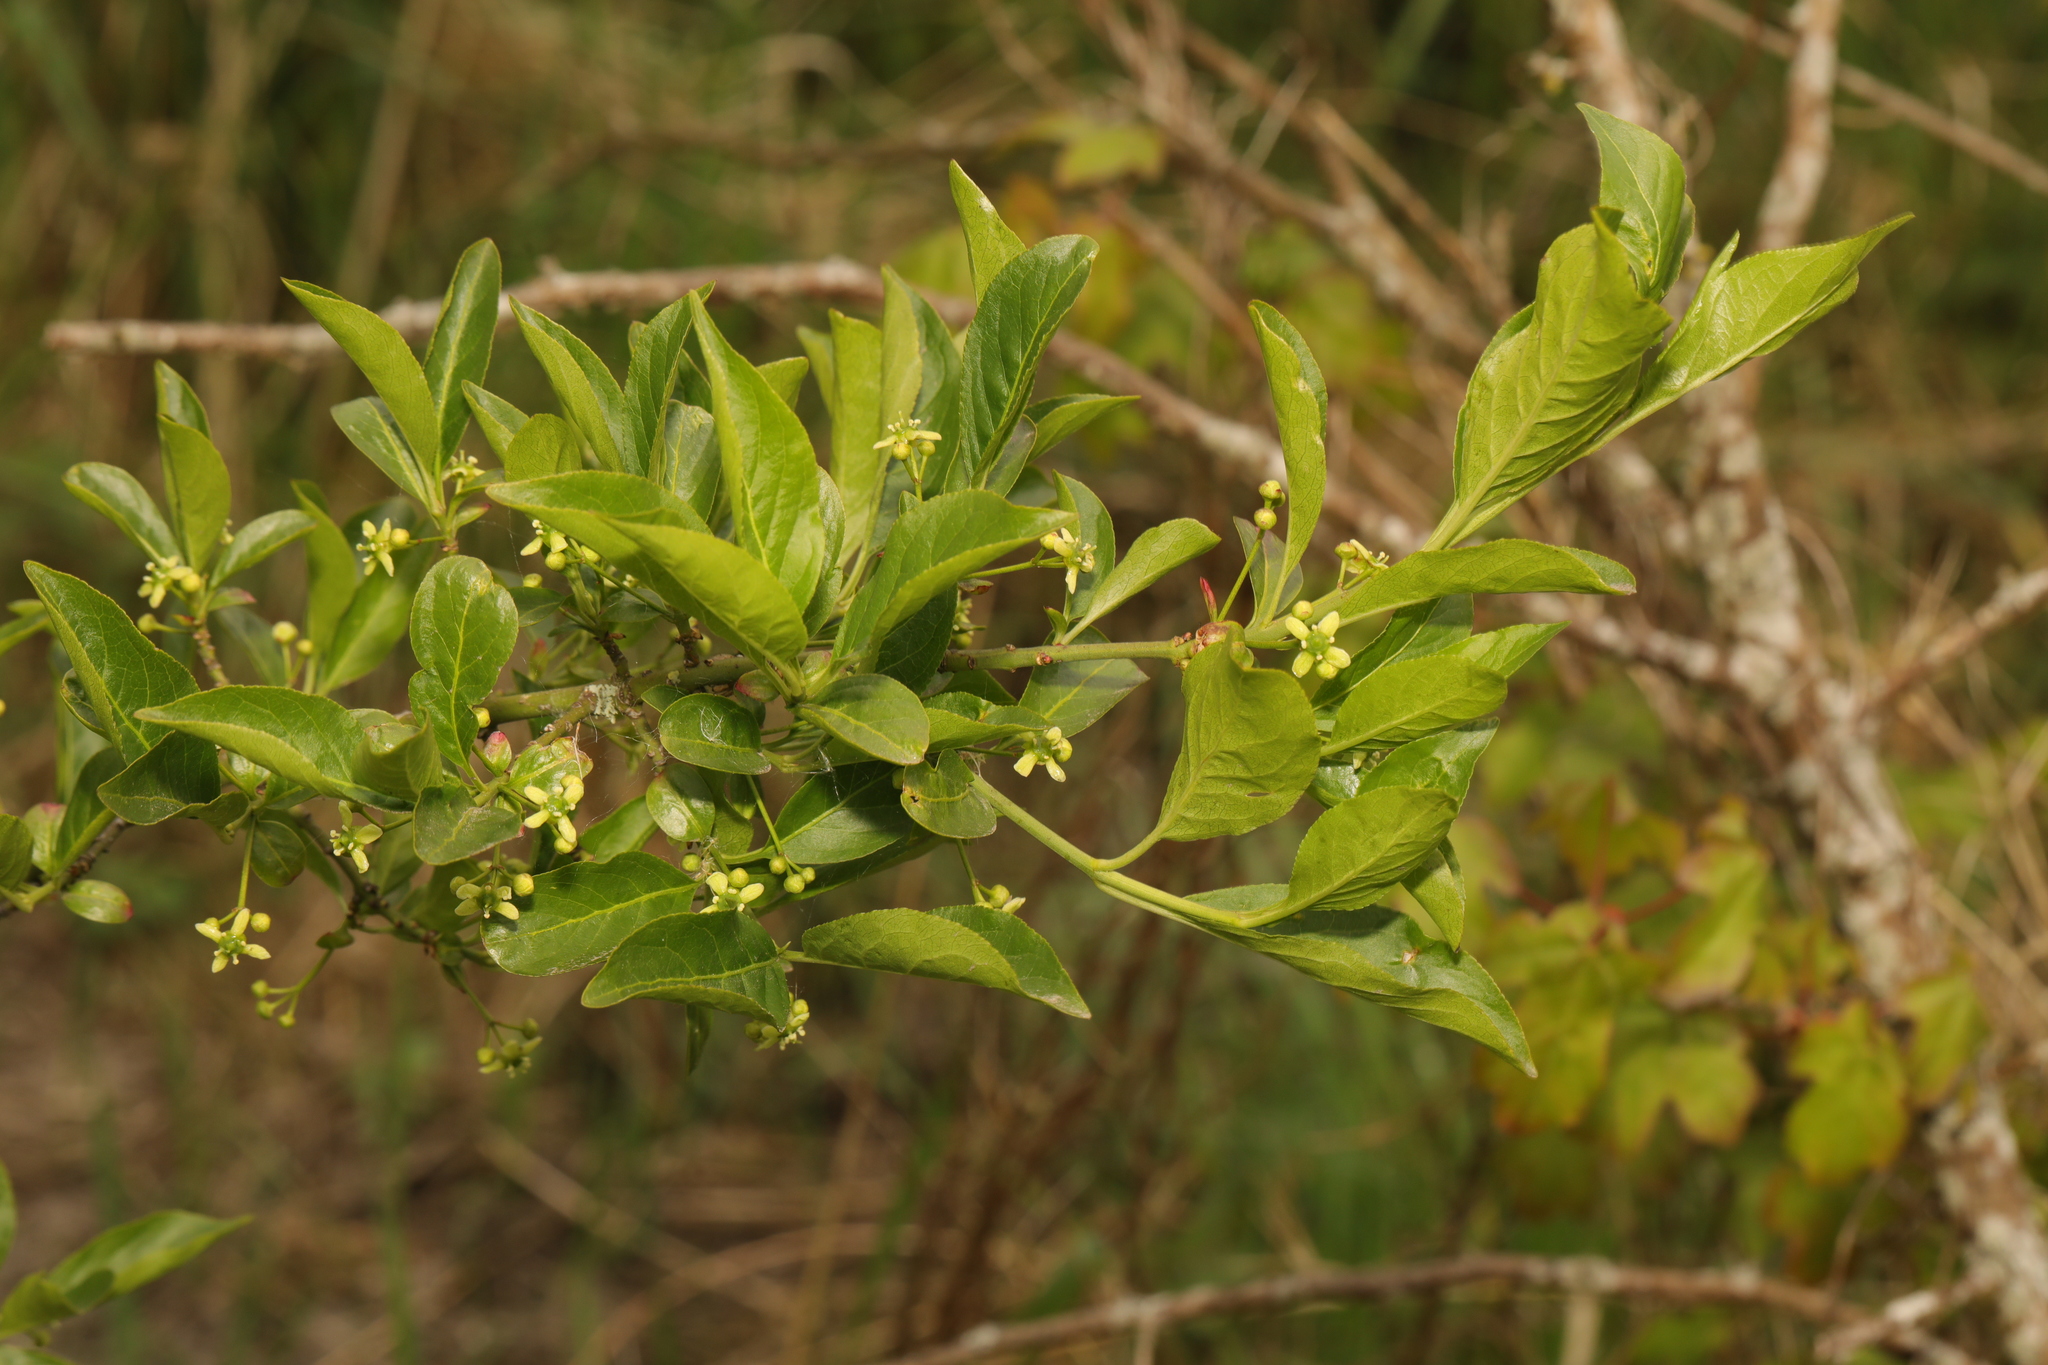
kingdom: Plantae
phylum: Tracheophyta
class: Magnoliopsida
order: Celastrales
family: Celastraceae
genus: Euonymus
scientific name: Euonymus europaeus
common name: Spindle
